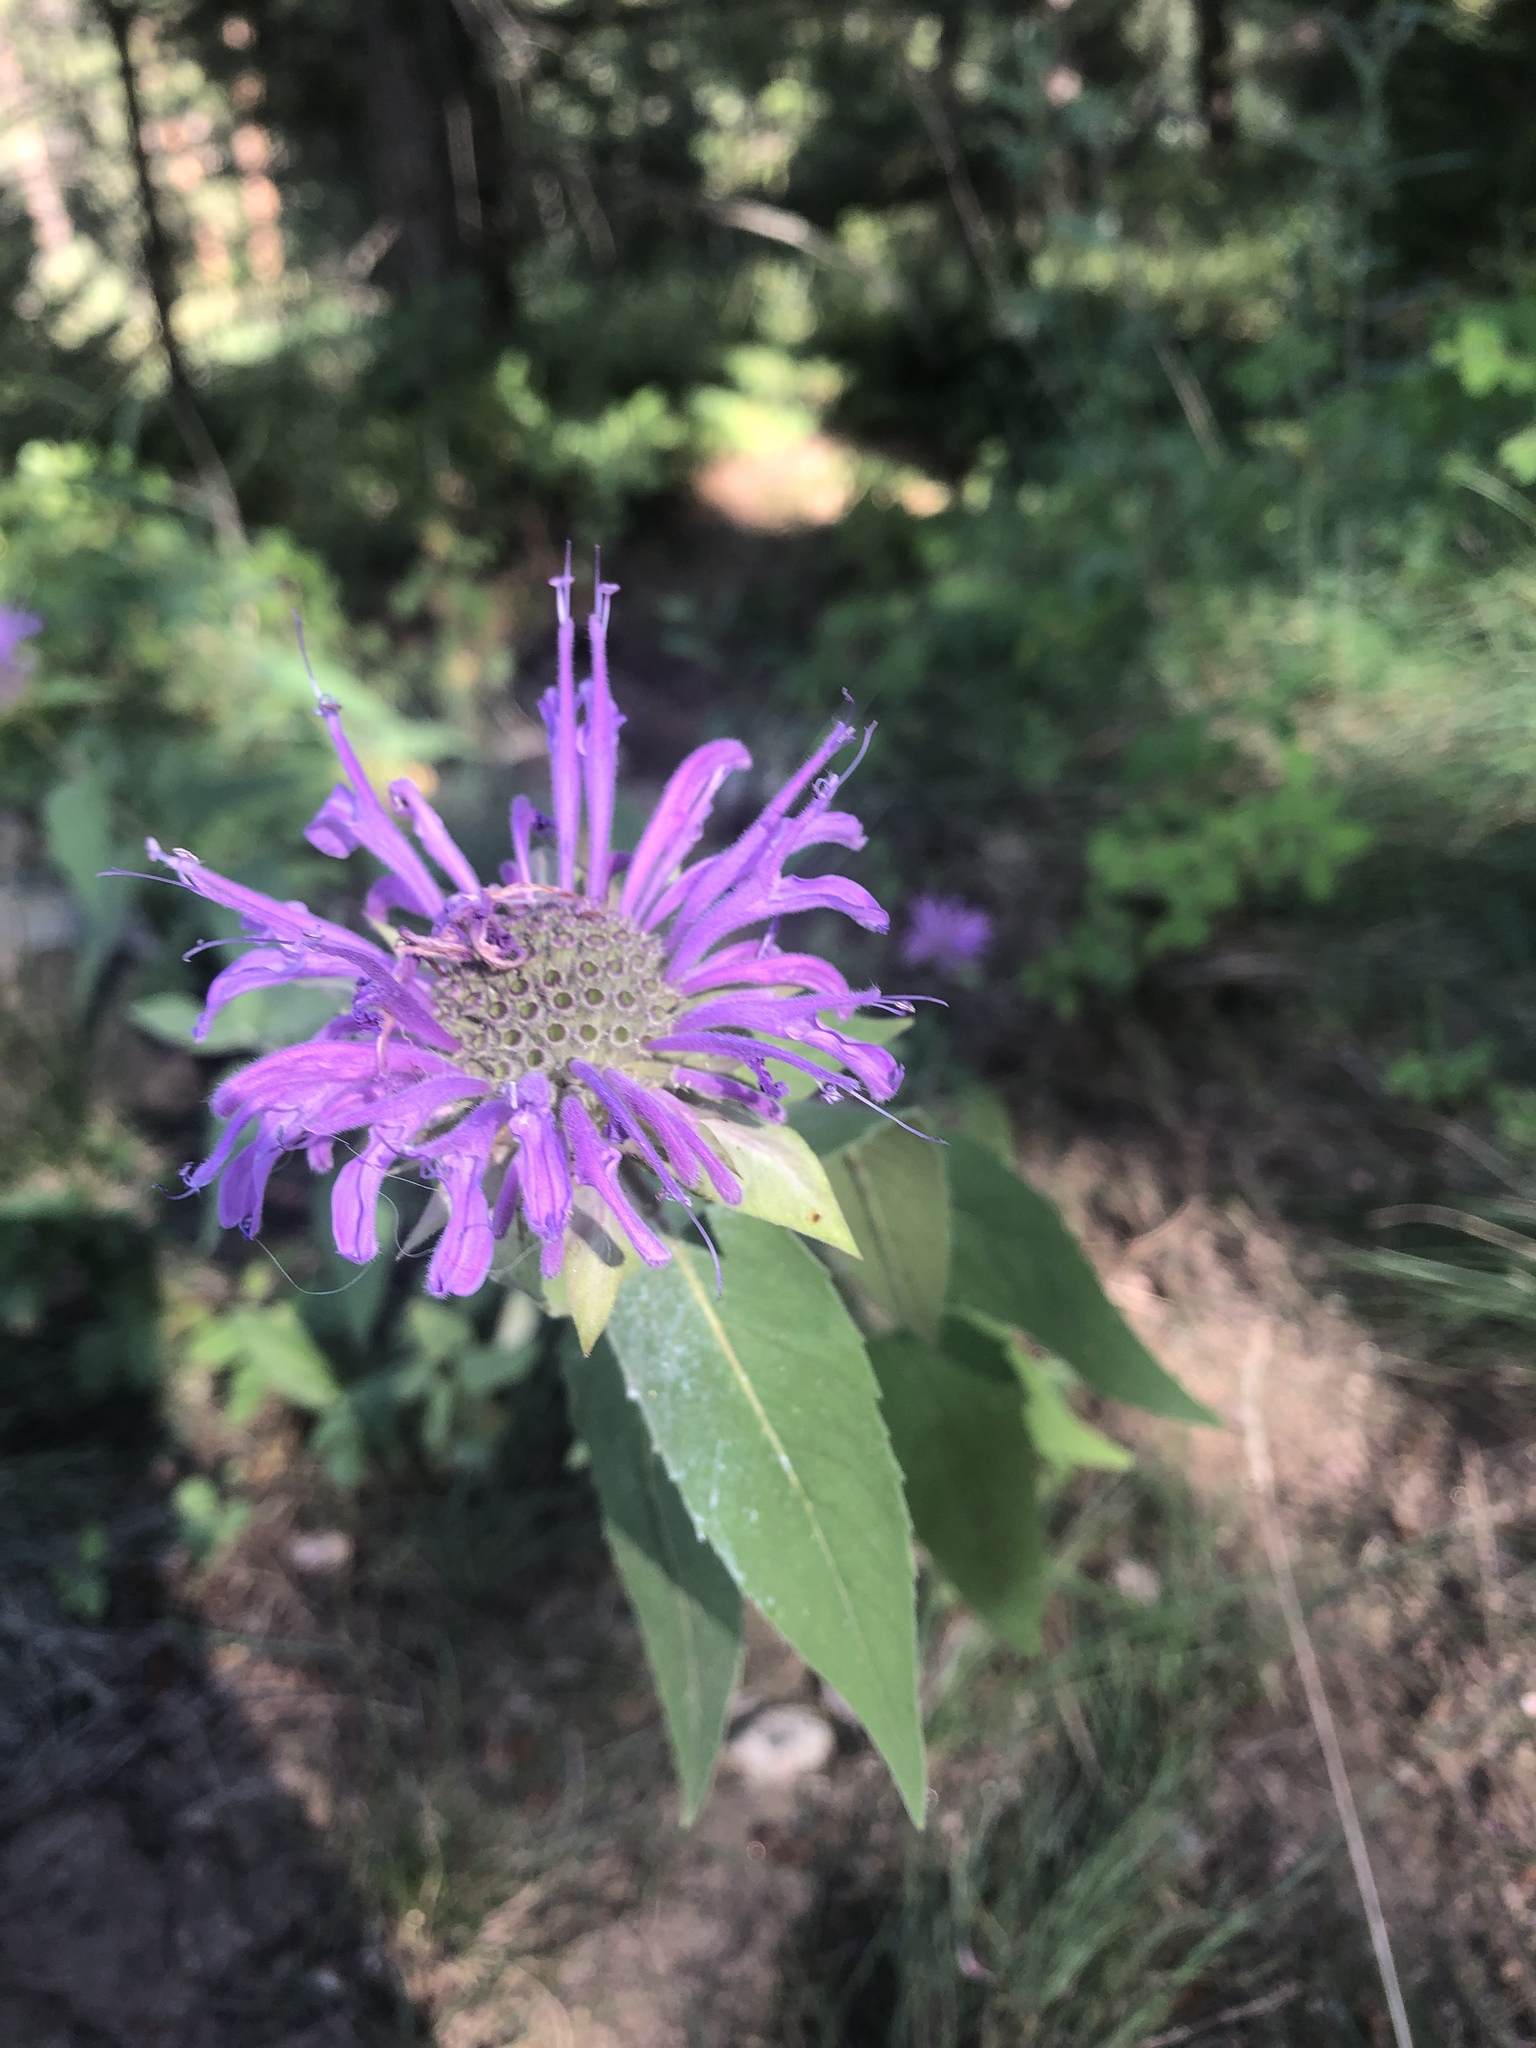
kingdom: Plantae
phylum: Tracheophyta
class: Magnoliopsida
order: Lamiales
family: Lamiaceae
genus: Monarda
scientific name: Monarda fistulosa
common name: Purple beebalm
